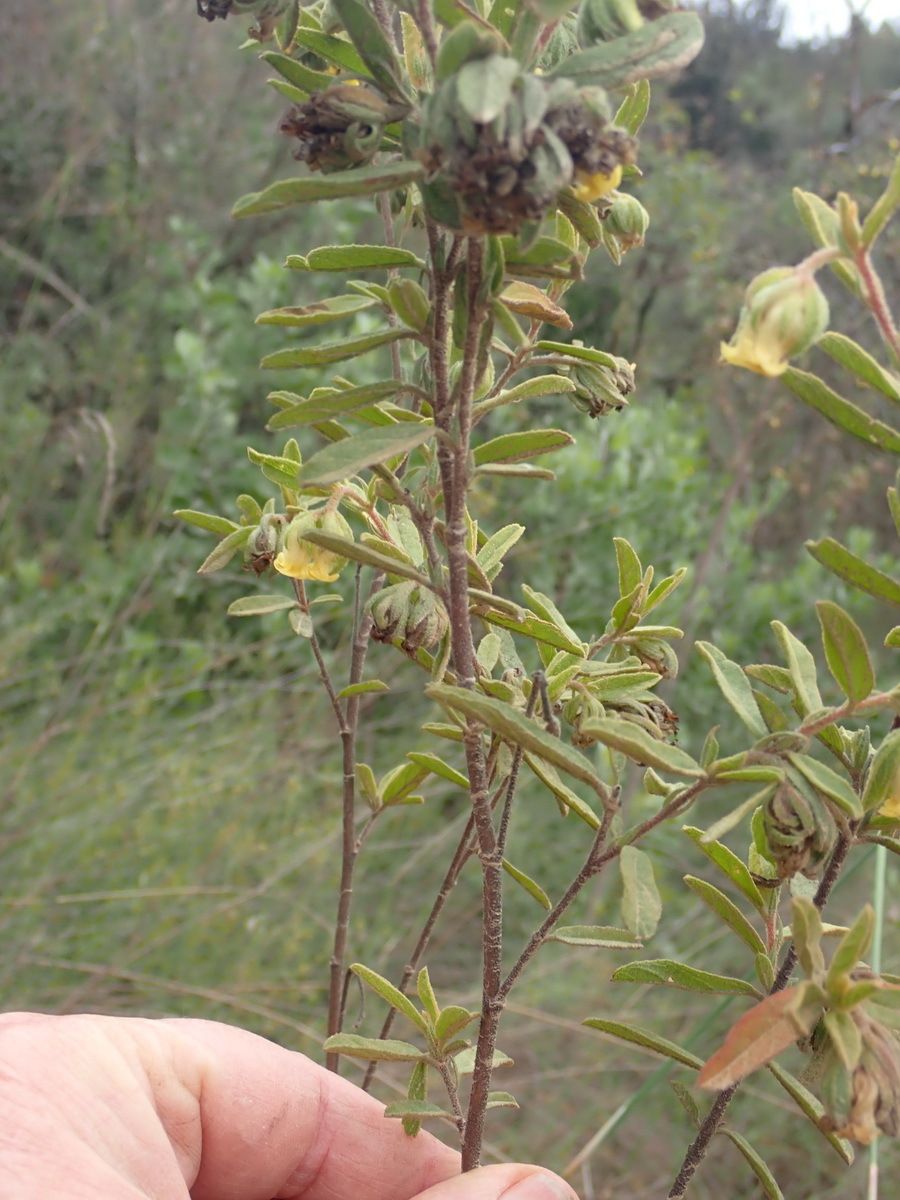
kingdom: Plantae
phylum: Tracheophyta
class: Magnoliopsida
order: Malvales
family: Malvaceae
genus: Hermannia
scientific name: Hermannia involucrata
